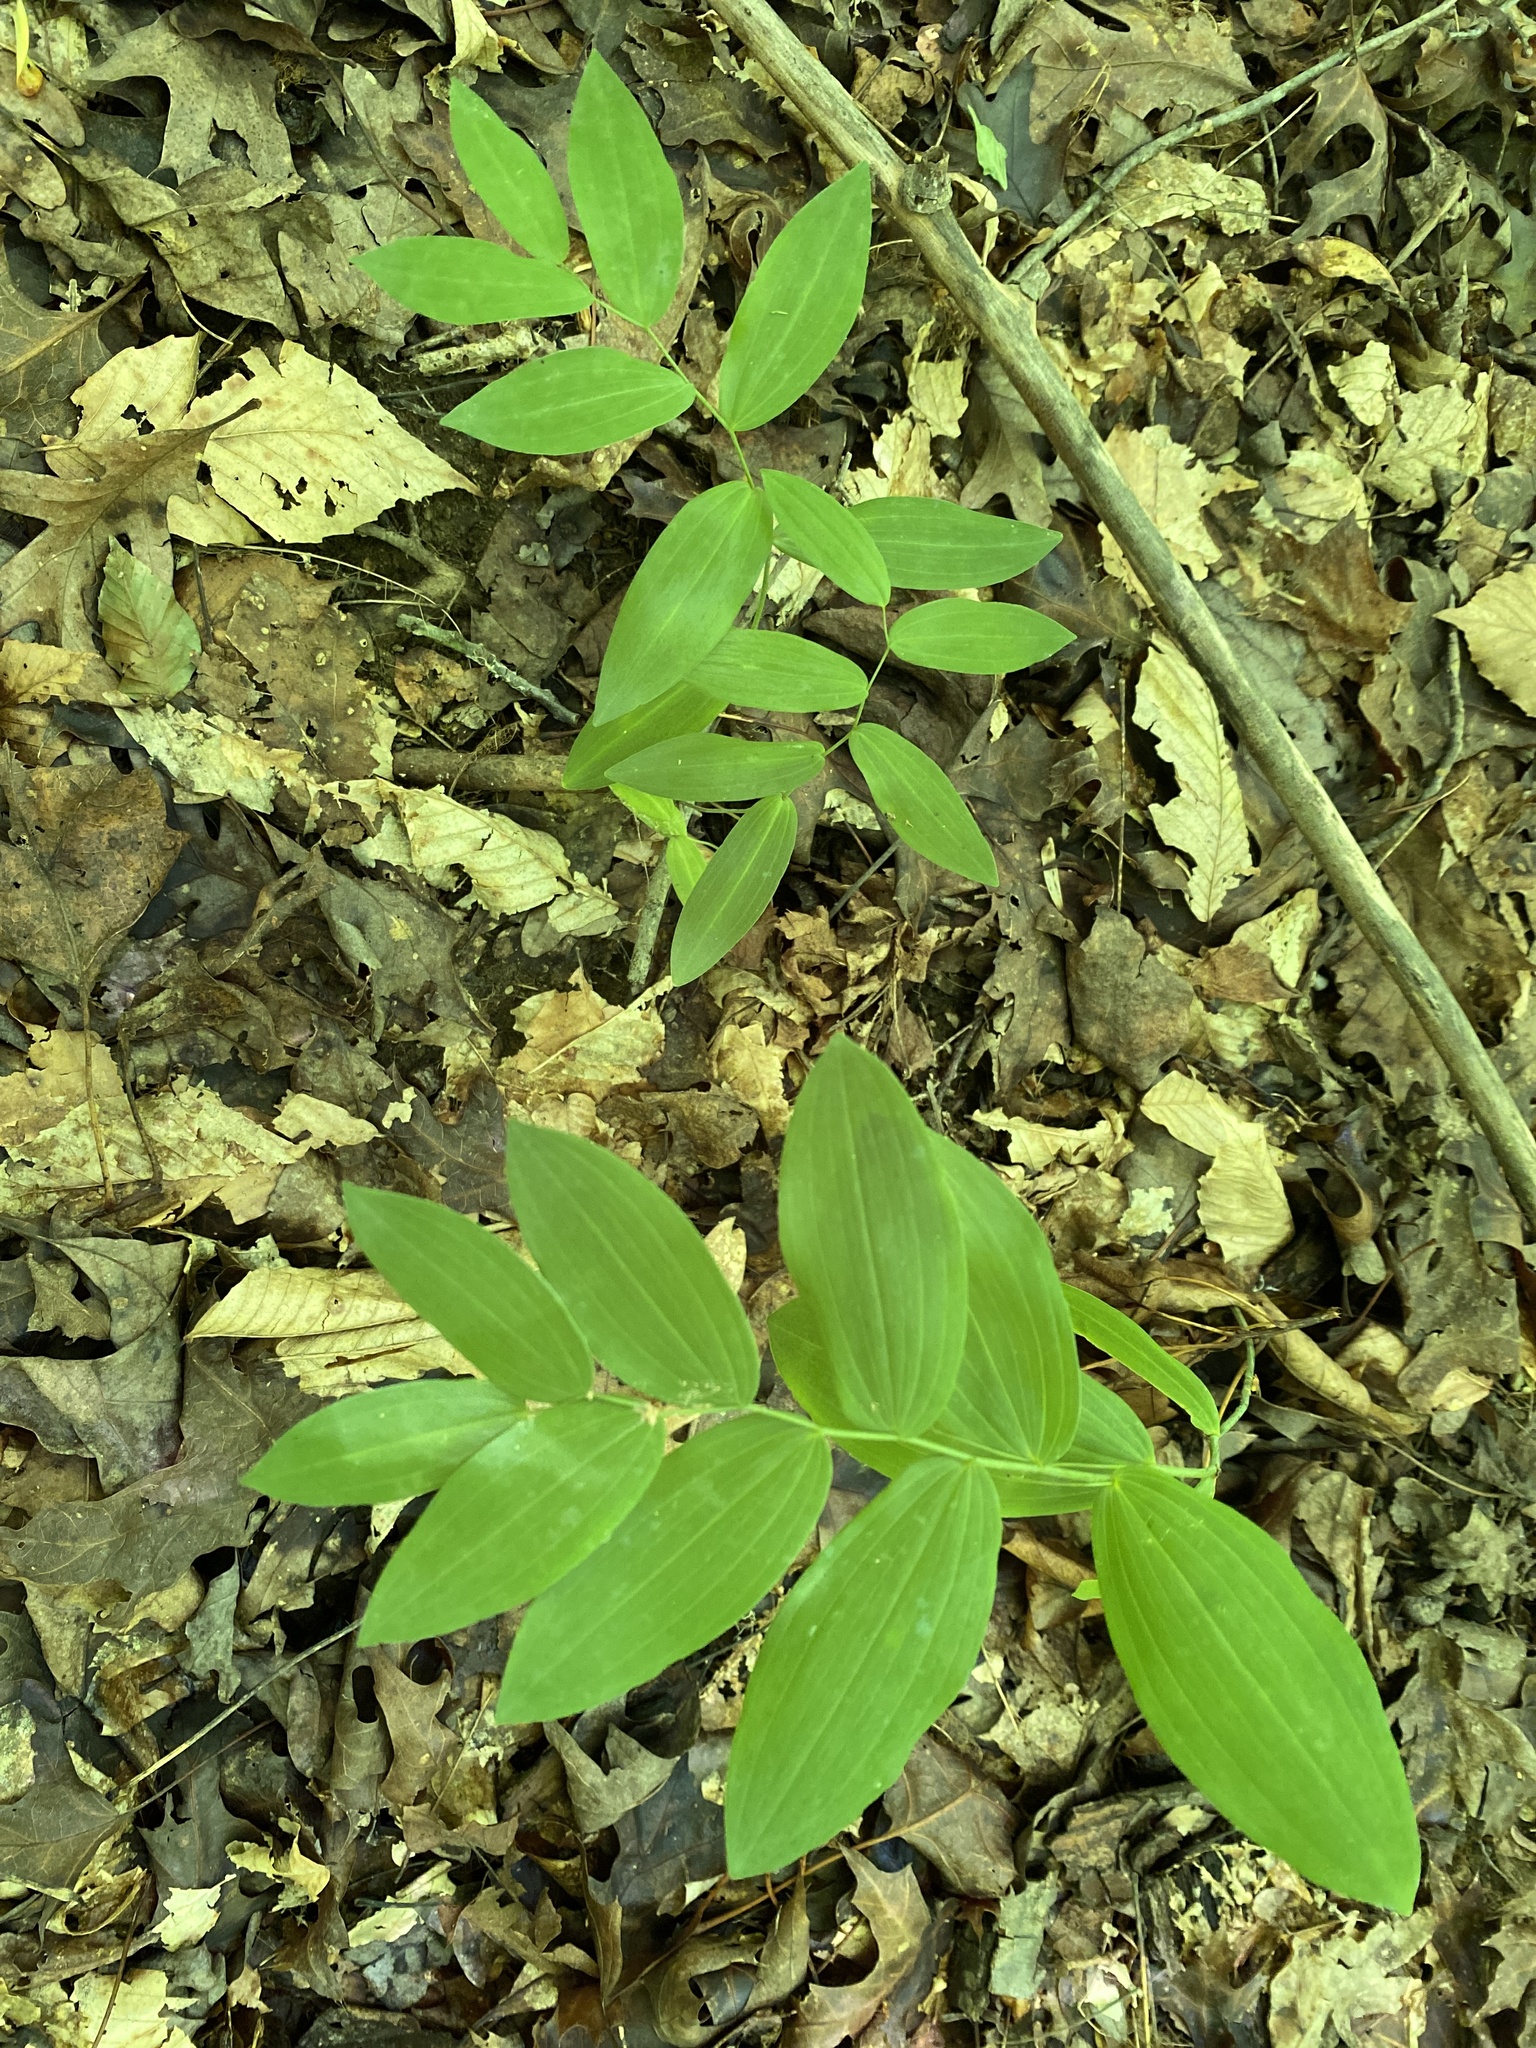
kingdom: Plantae
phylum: Tracheophyta
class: Liliopsida
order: Asparagales
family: Asparagaceae
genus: Polygonatum
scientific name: Polygonatum biflorum
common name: American solomon's-seal
